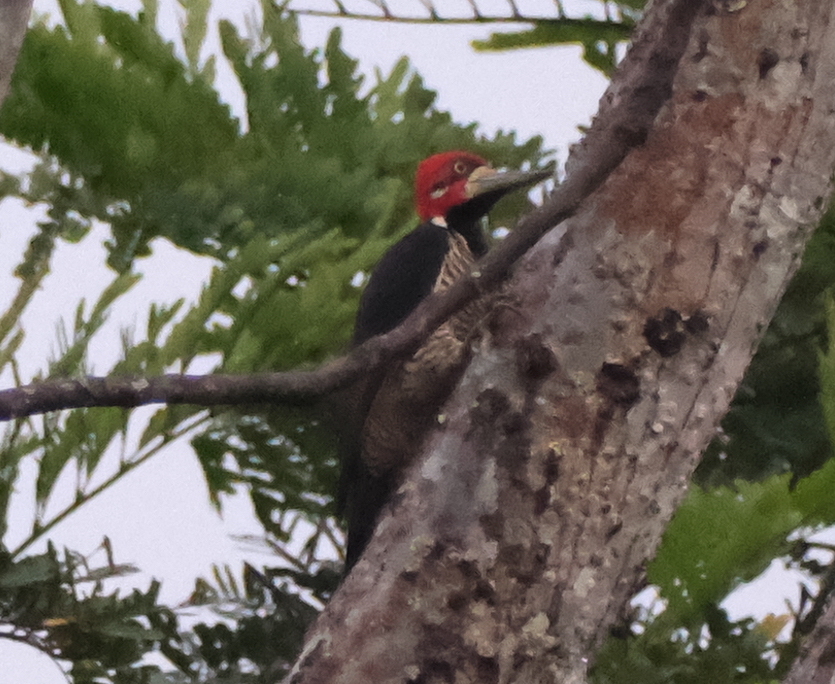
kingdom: Animalia
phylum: Chordata
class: Aves
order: Piciformes
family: Picidae
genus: Campephilus
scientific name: Campephilus melanoleucos
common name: Crimson-crested woodpecker
